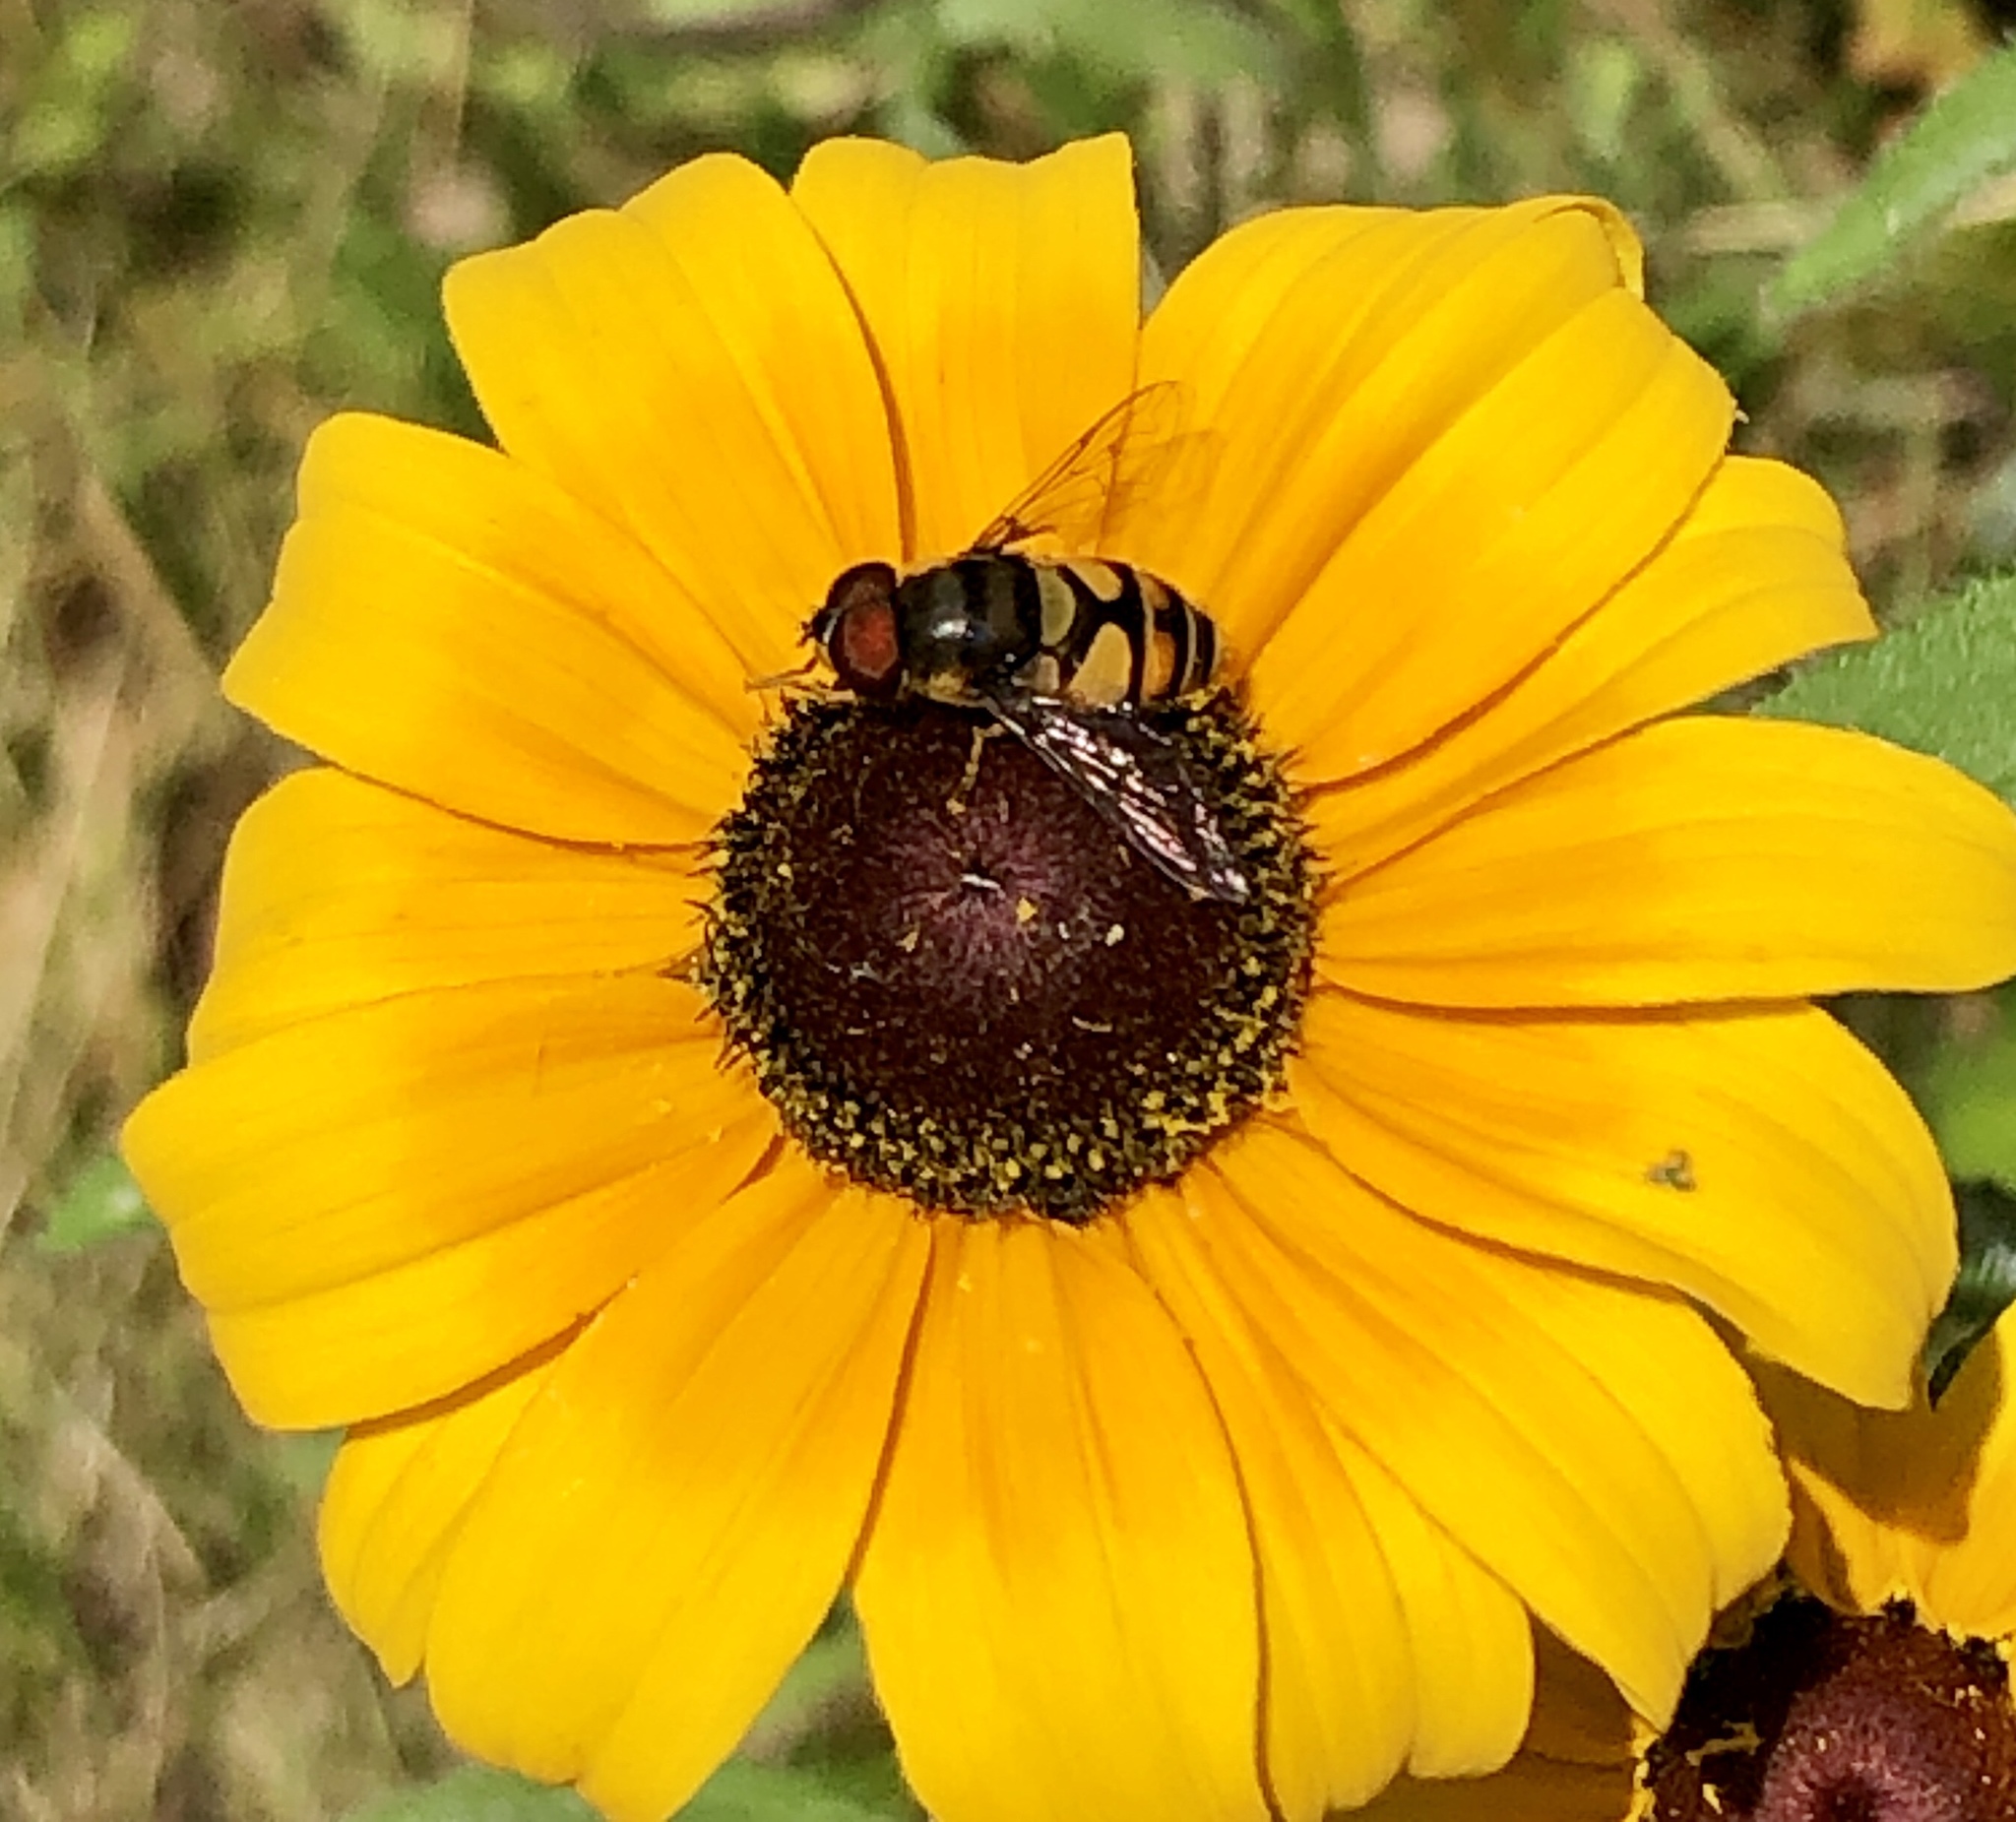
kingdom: Animalia
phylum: Arthropoda
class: Insecta
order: Diptera
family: Syrphidae
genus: Eristalis
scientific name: Eristalis transversa
